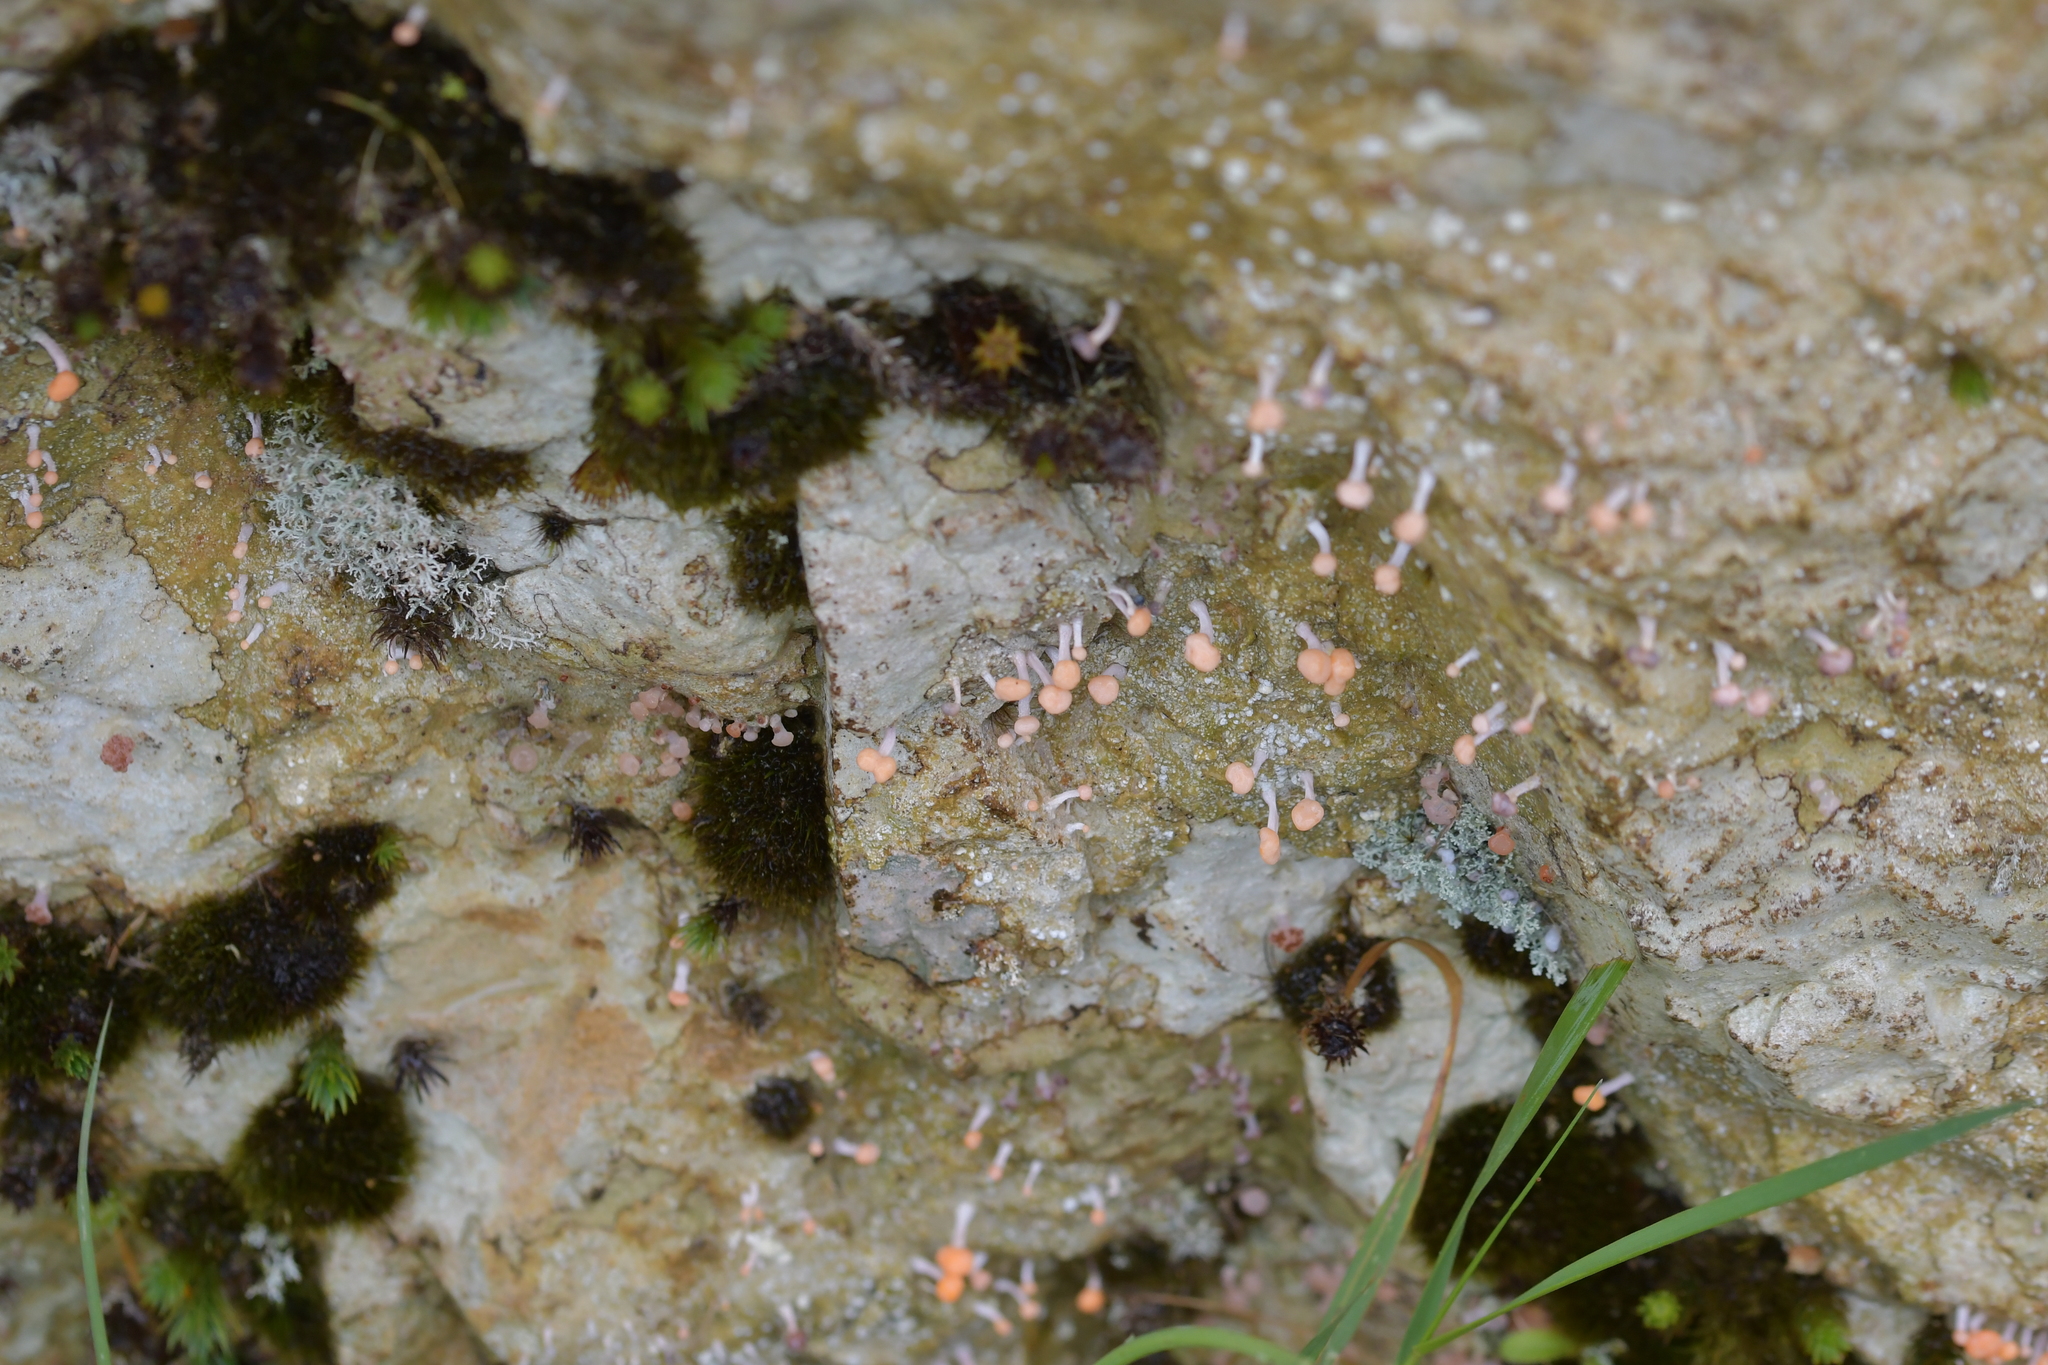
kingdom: Fungi
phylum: Ascomycota
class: Lecanoromycetes
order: Pertusariales
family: Icmadophilaceae
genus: Dibaeis
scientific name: Dibaeis arcuata
